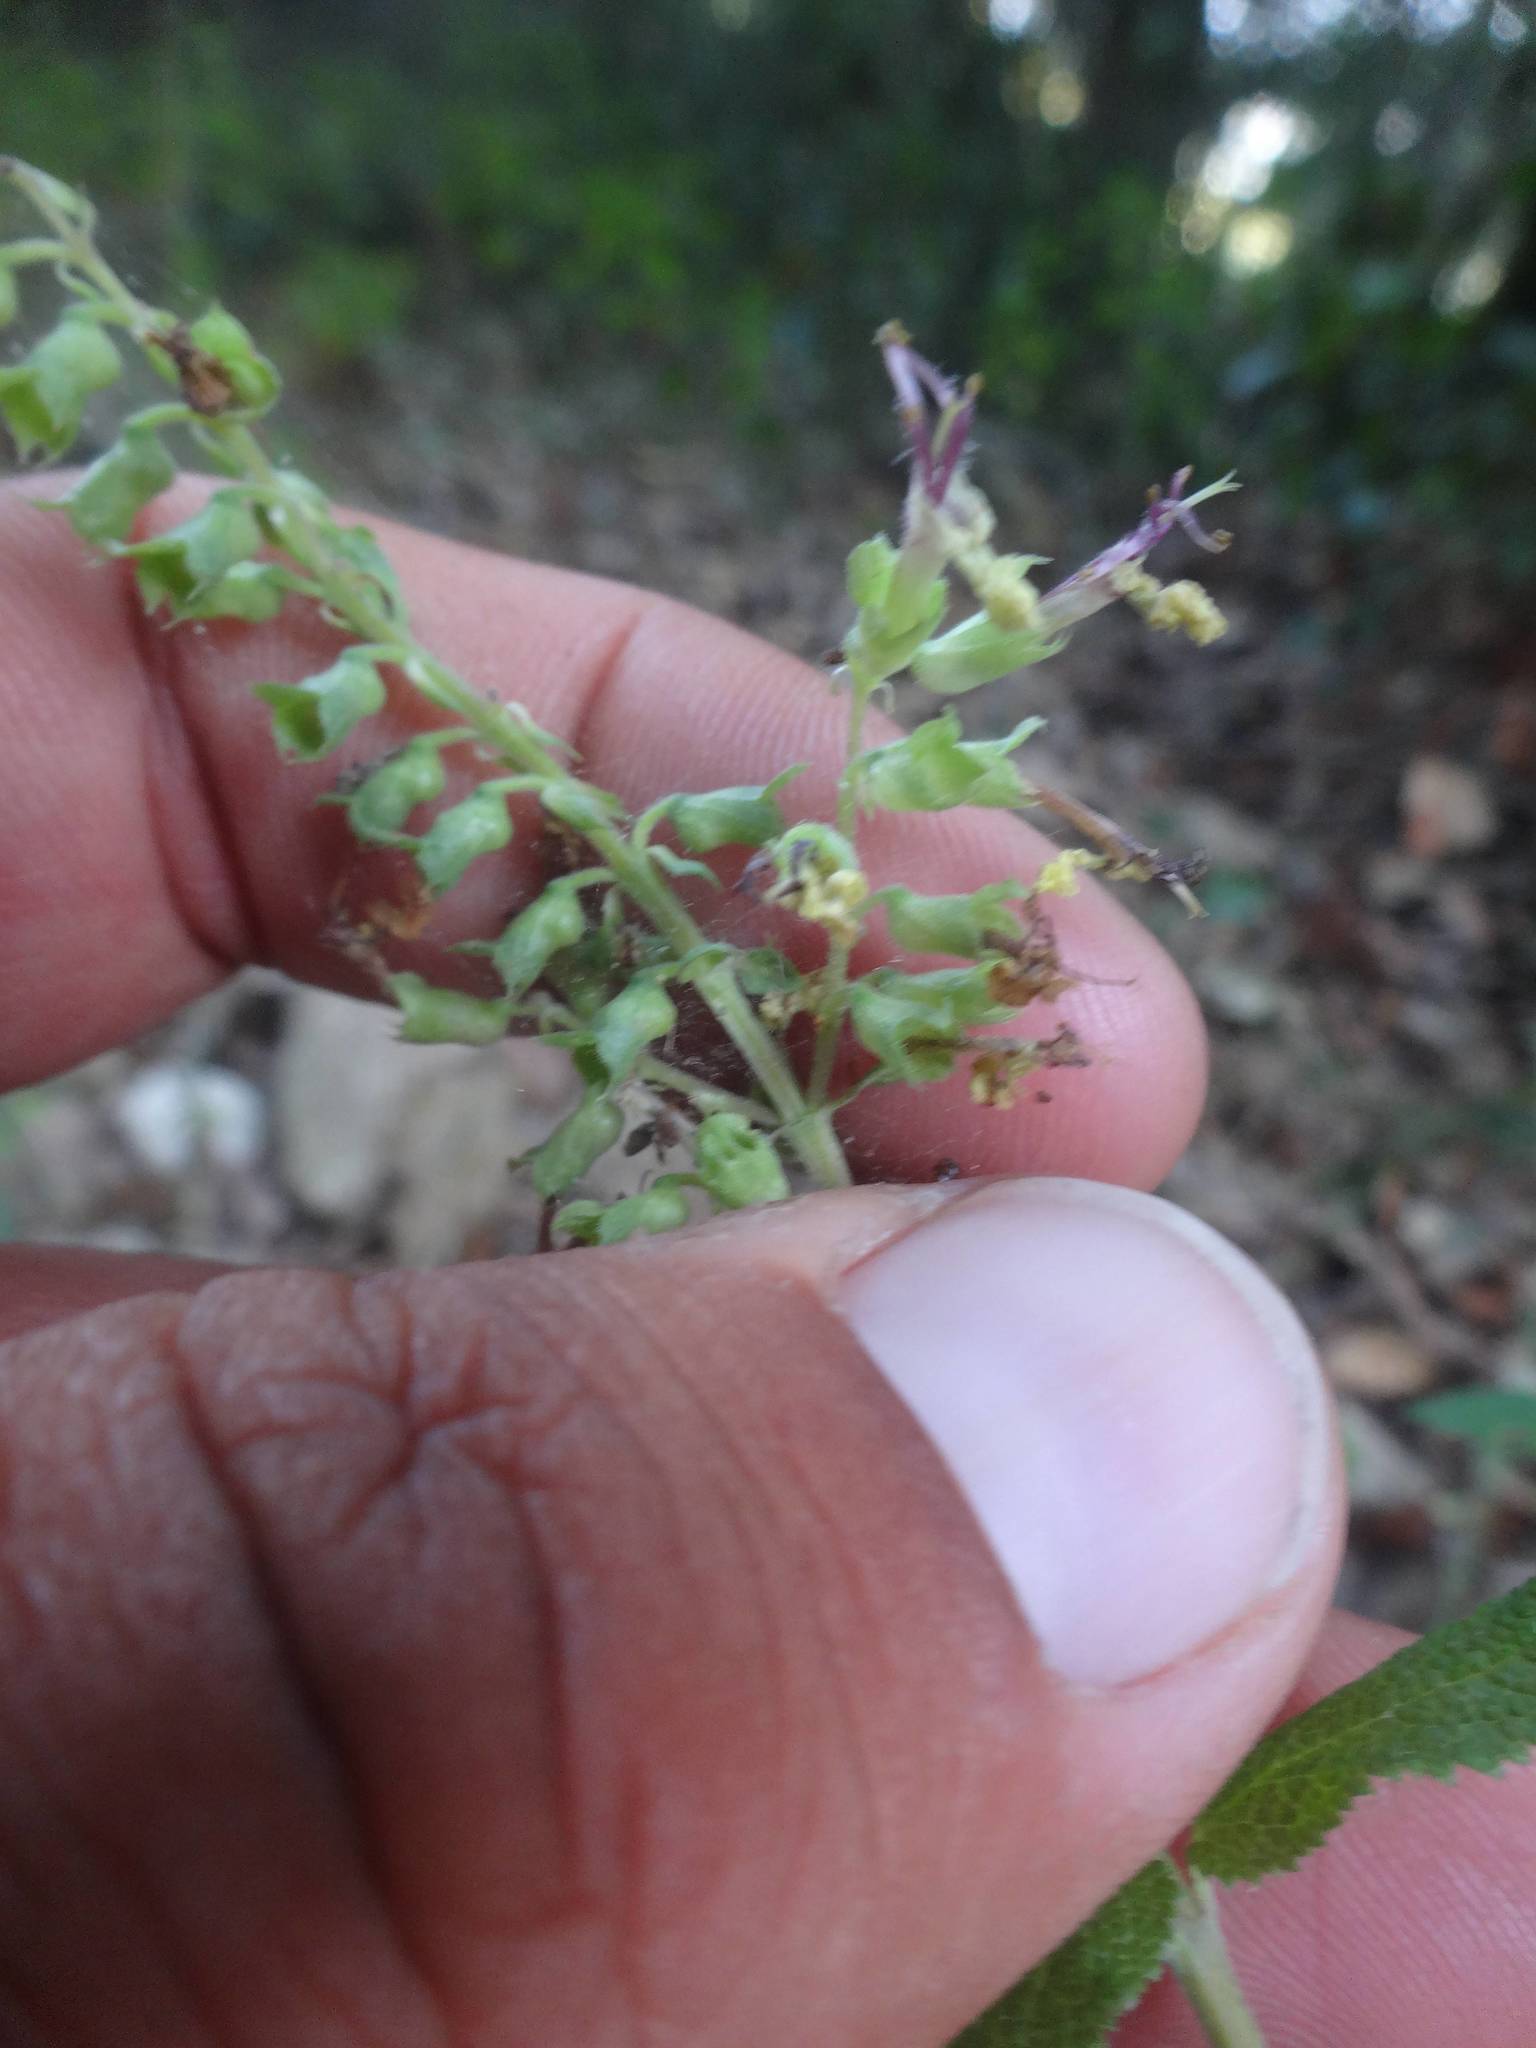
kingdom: Plantae
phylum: Tracheophyta
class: Magnoliopsida
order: Lamiales
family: Lamiaceae
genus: Teucrium
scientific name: Teucrium scorodonia
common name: Woodland germander
